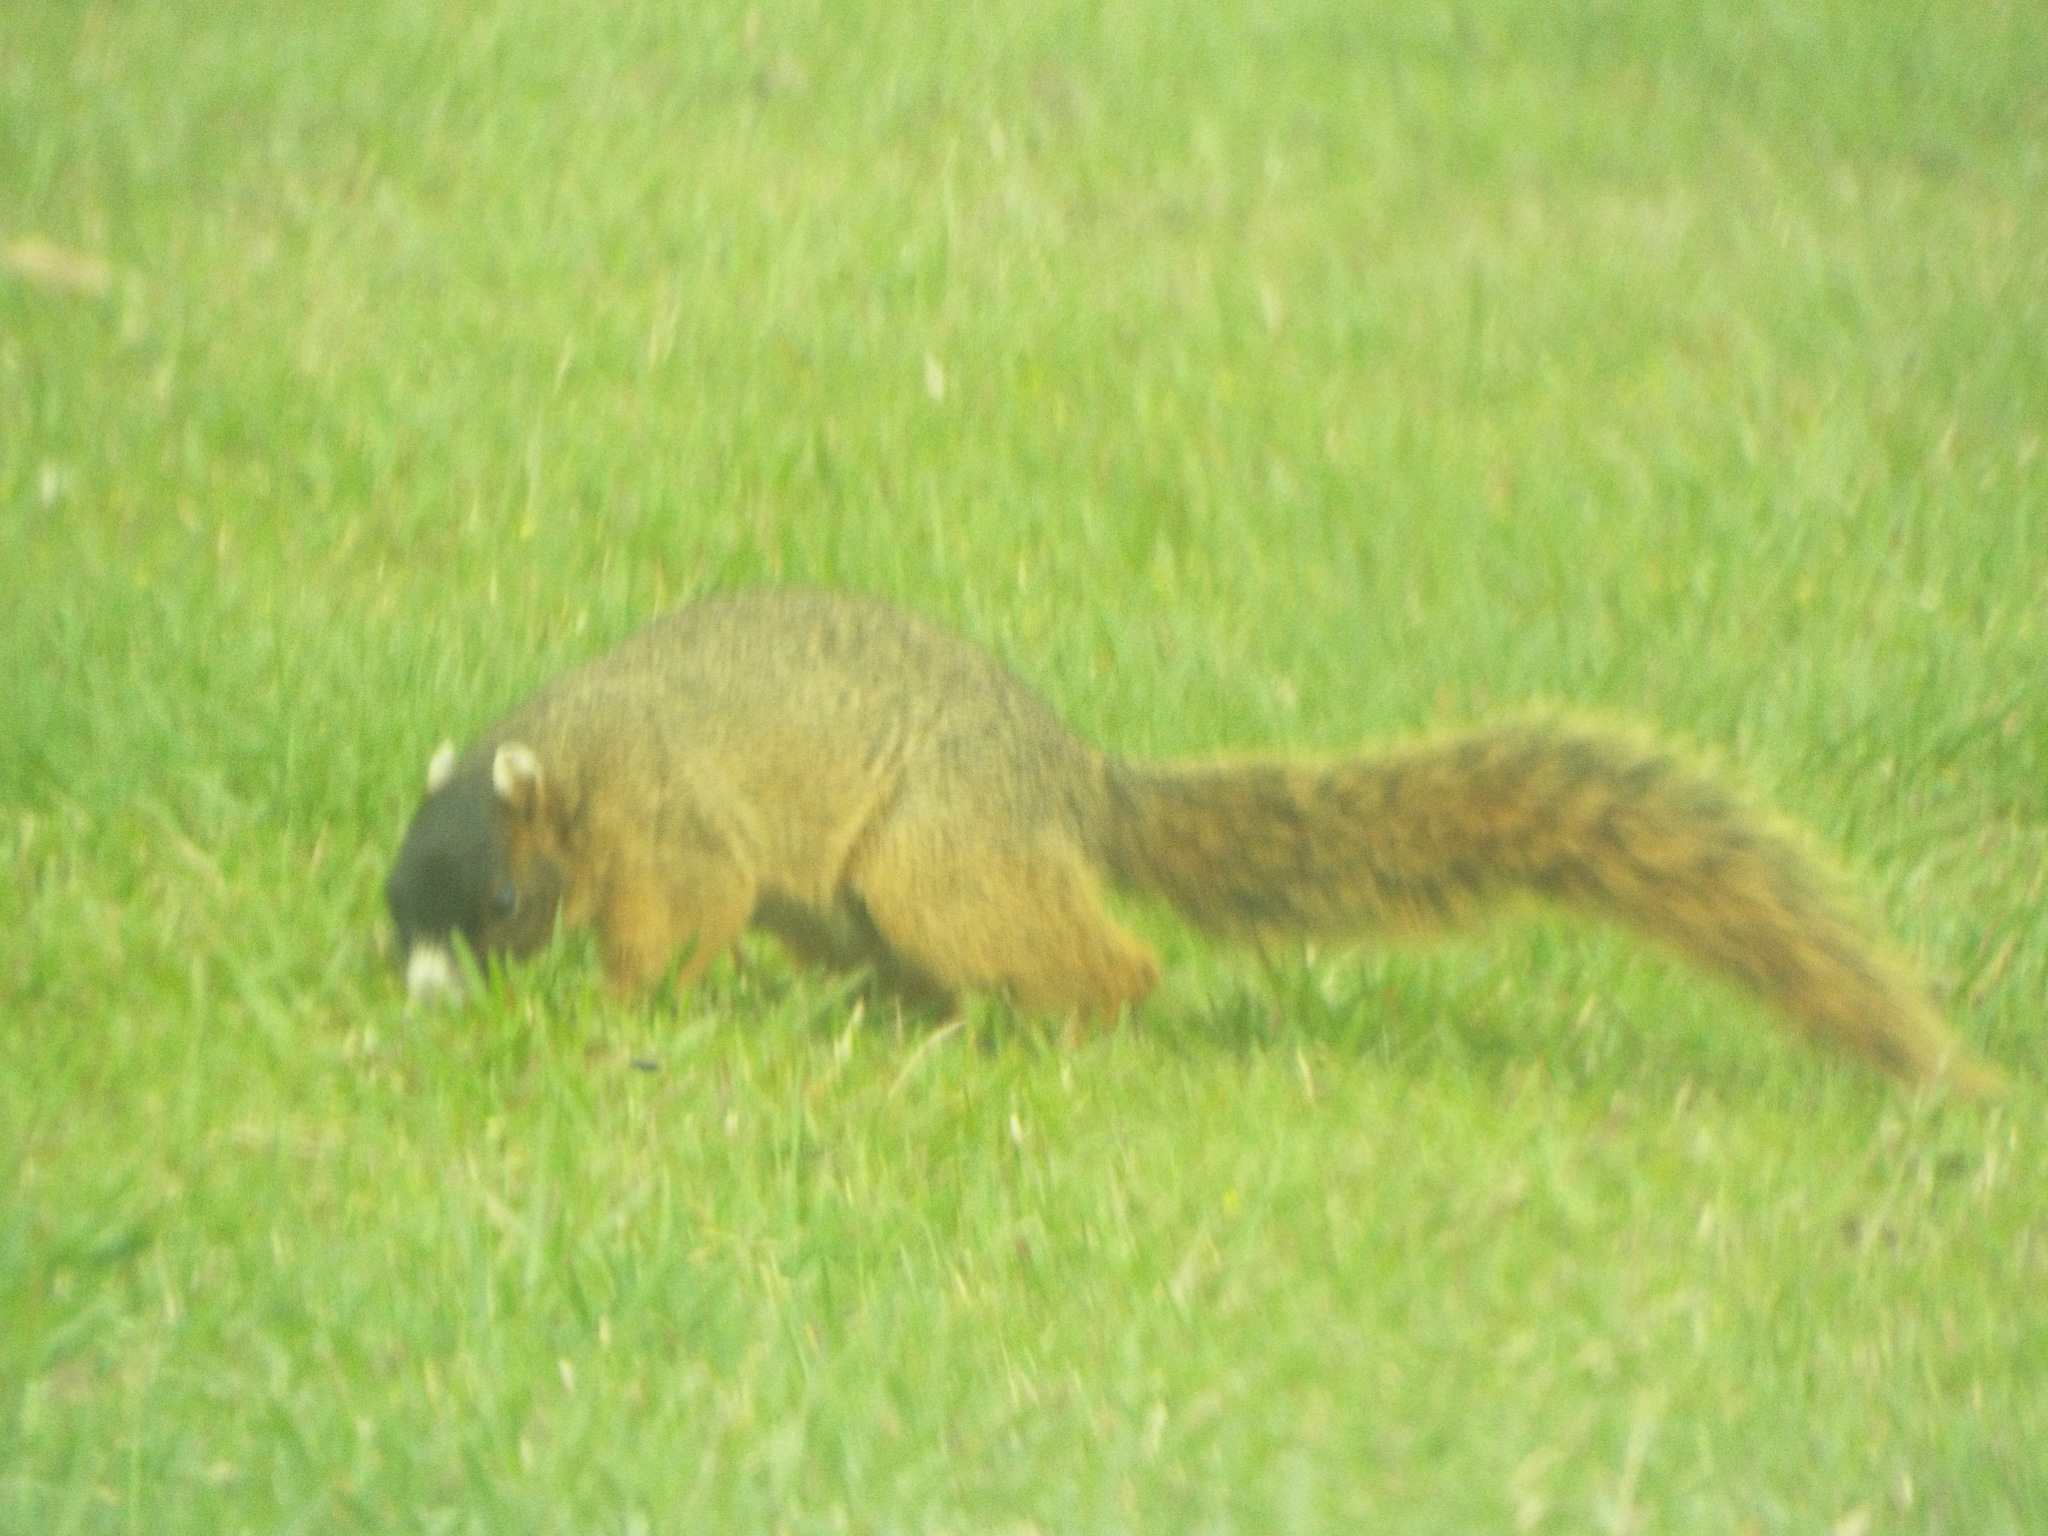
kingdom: Animalia
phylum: Chordata
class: Mammalia
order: Rodentia
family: Sciuridae
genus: Sciurus
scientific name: Sciurus niger
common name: Fox squirrel
